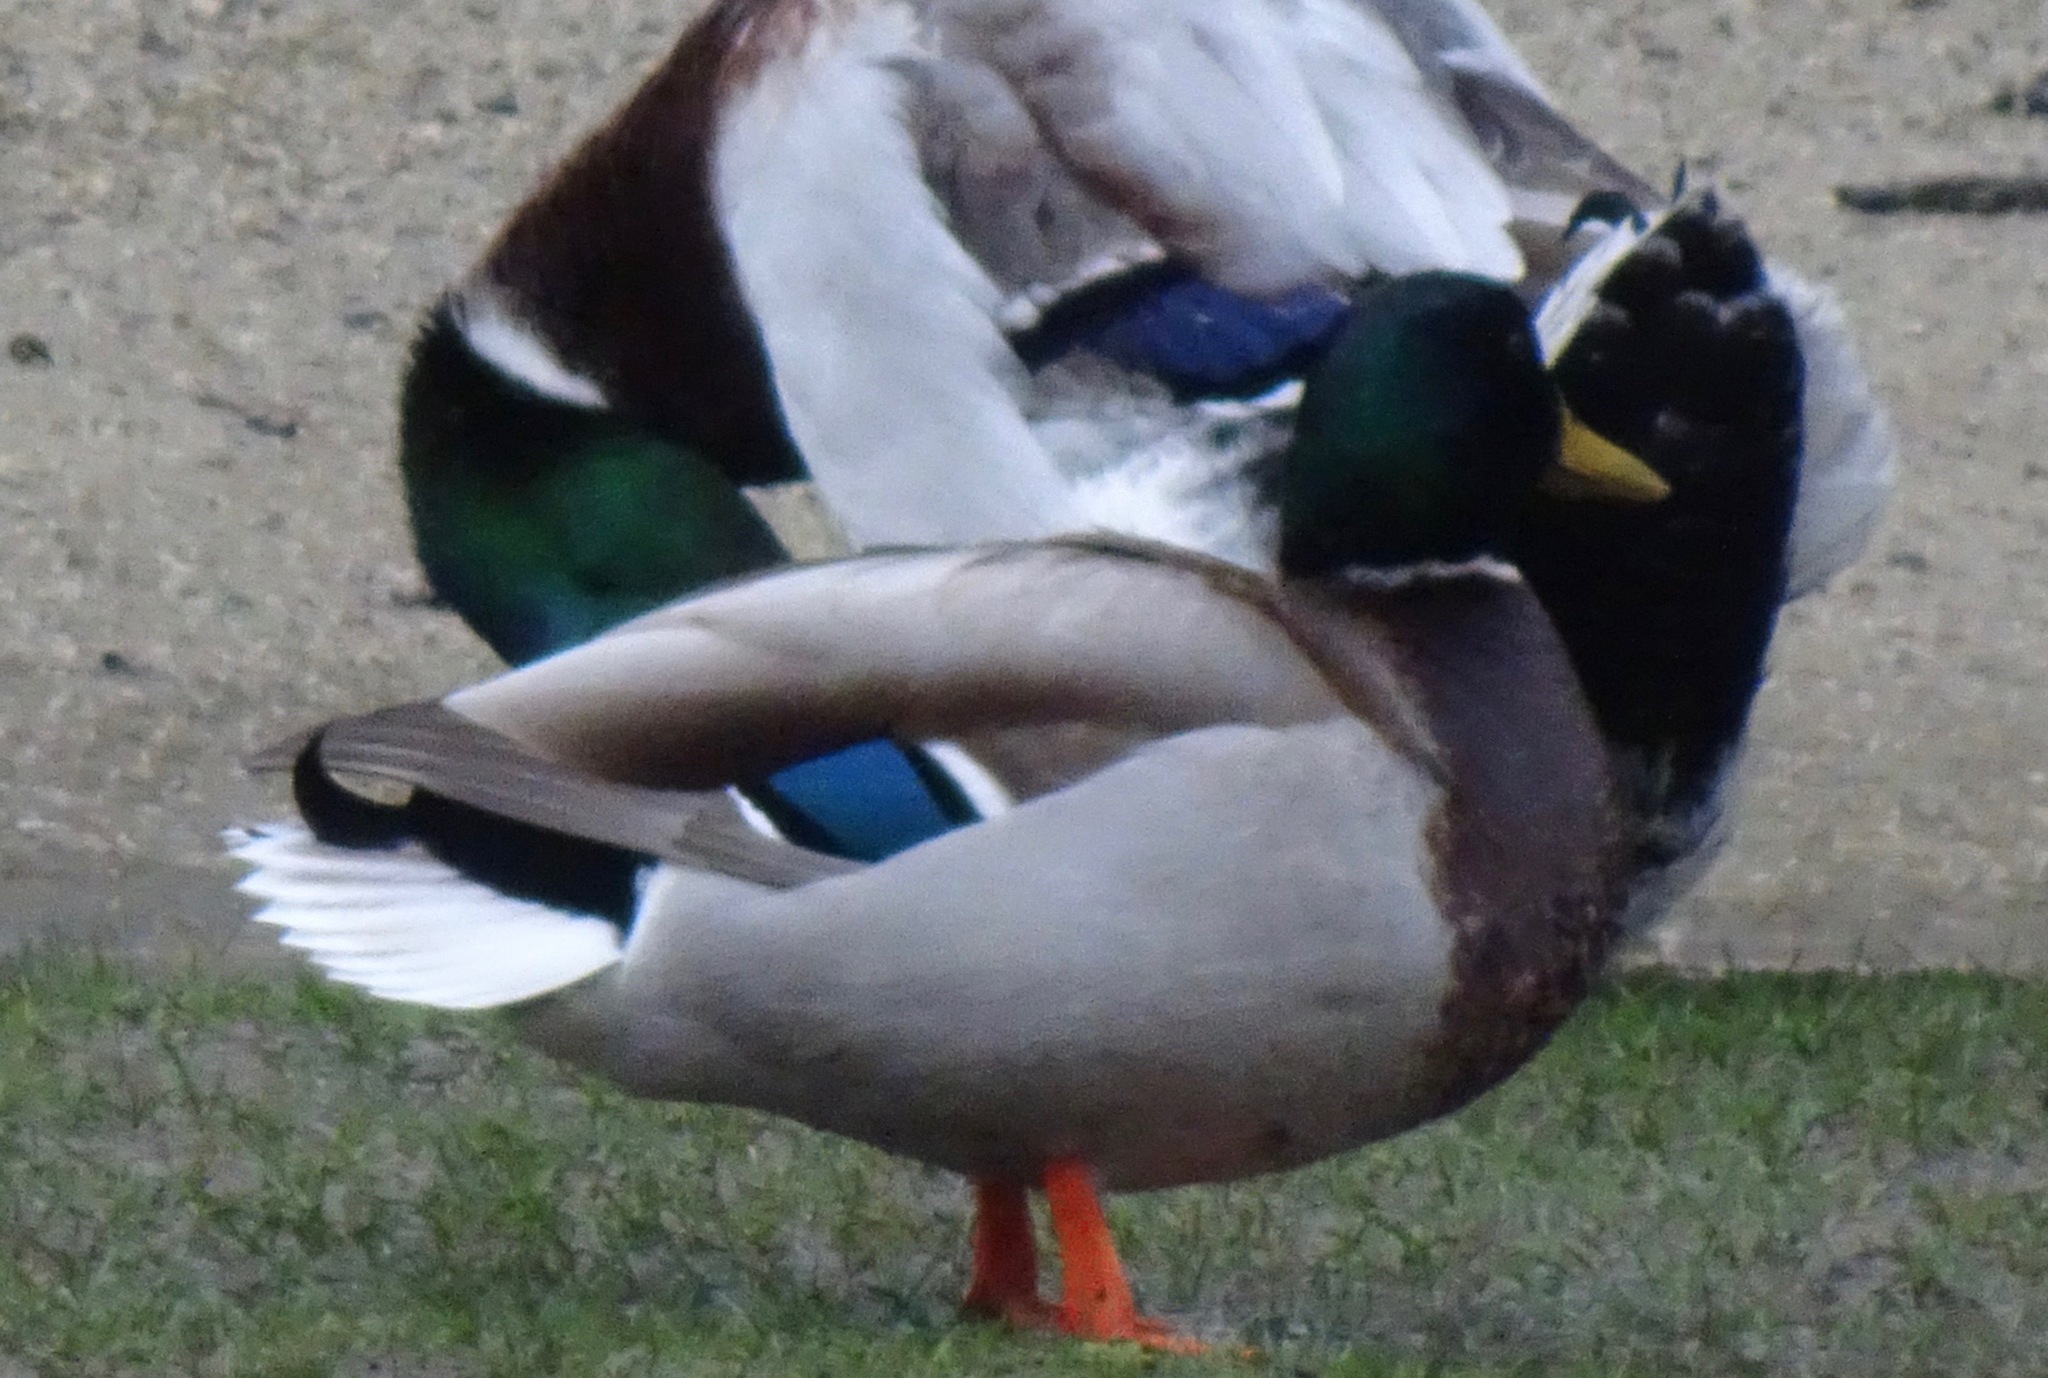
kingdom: Animalia
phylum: Chordata
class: Aves
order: Anseriformes
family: Anatidae
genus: Anas
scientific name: Anas platyrhynchos
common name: Mallard
